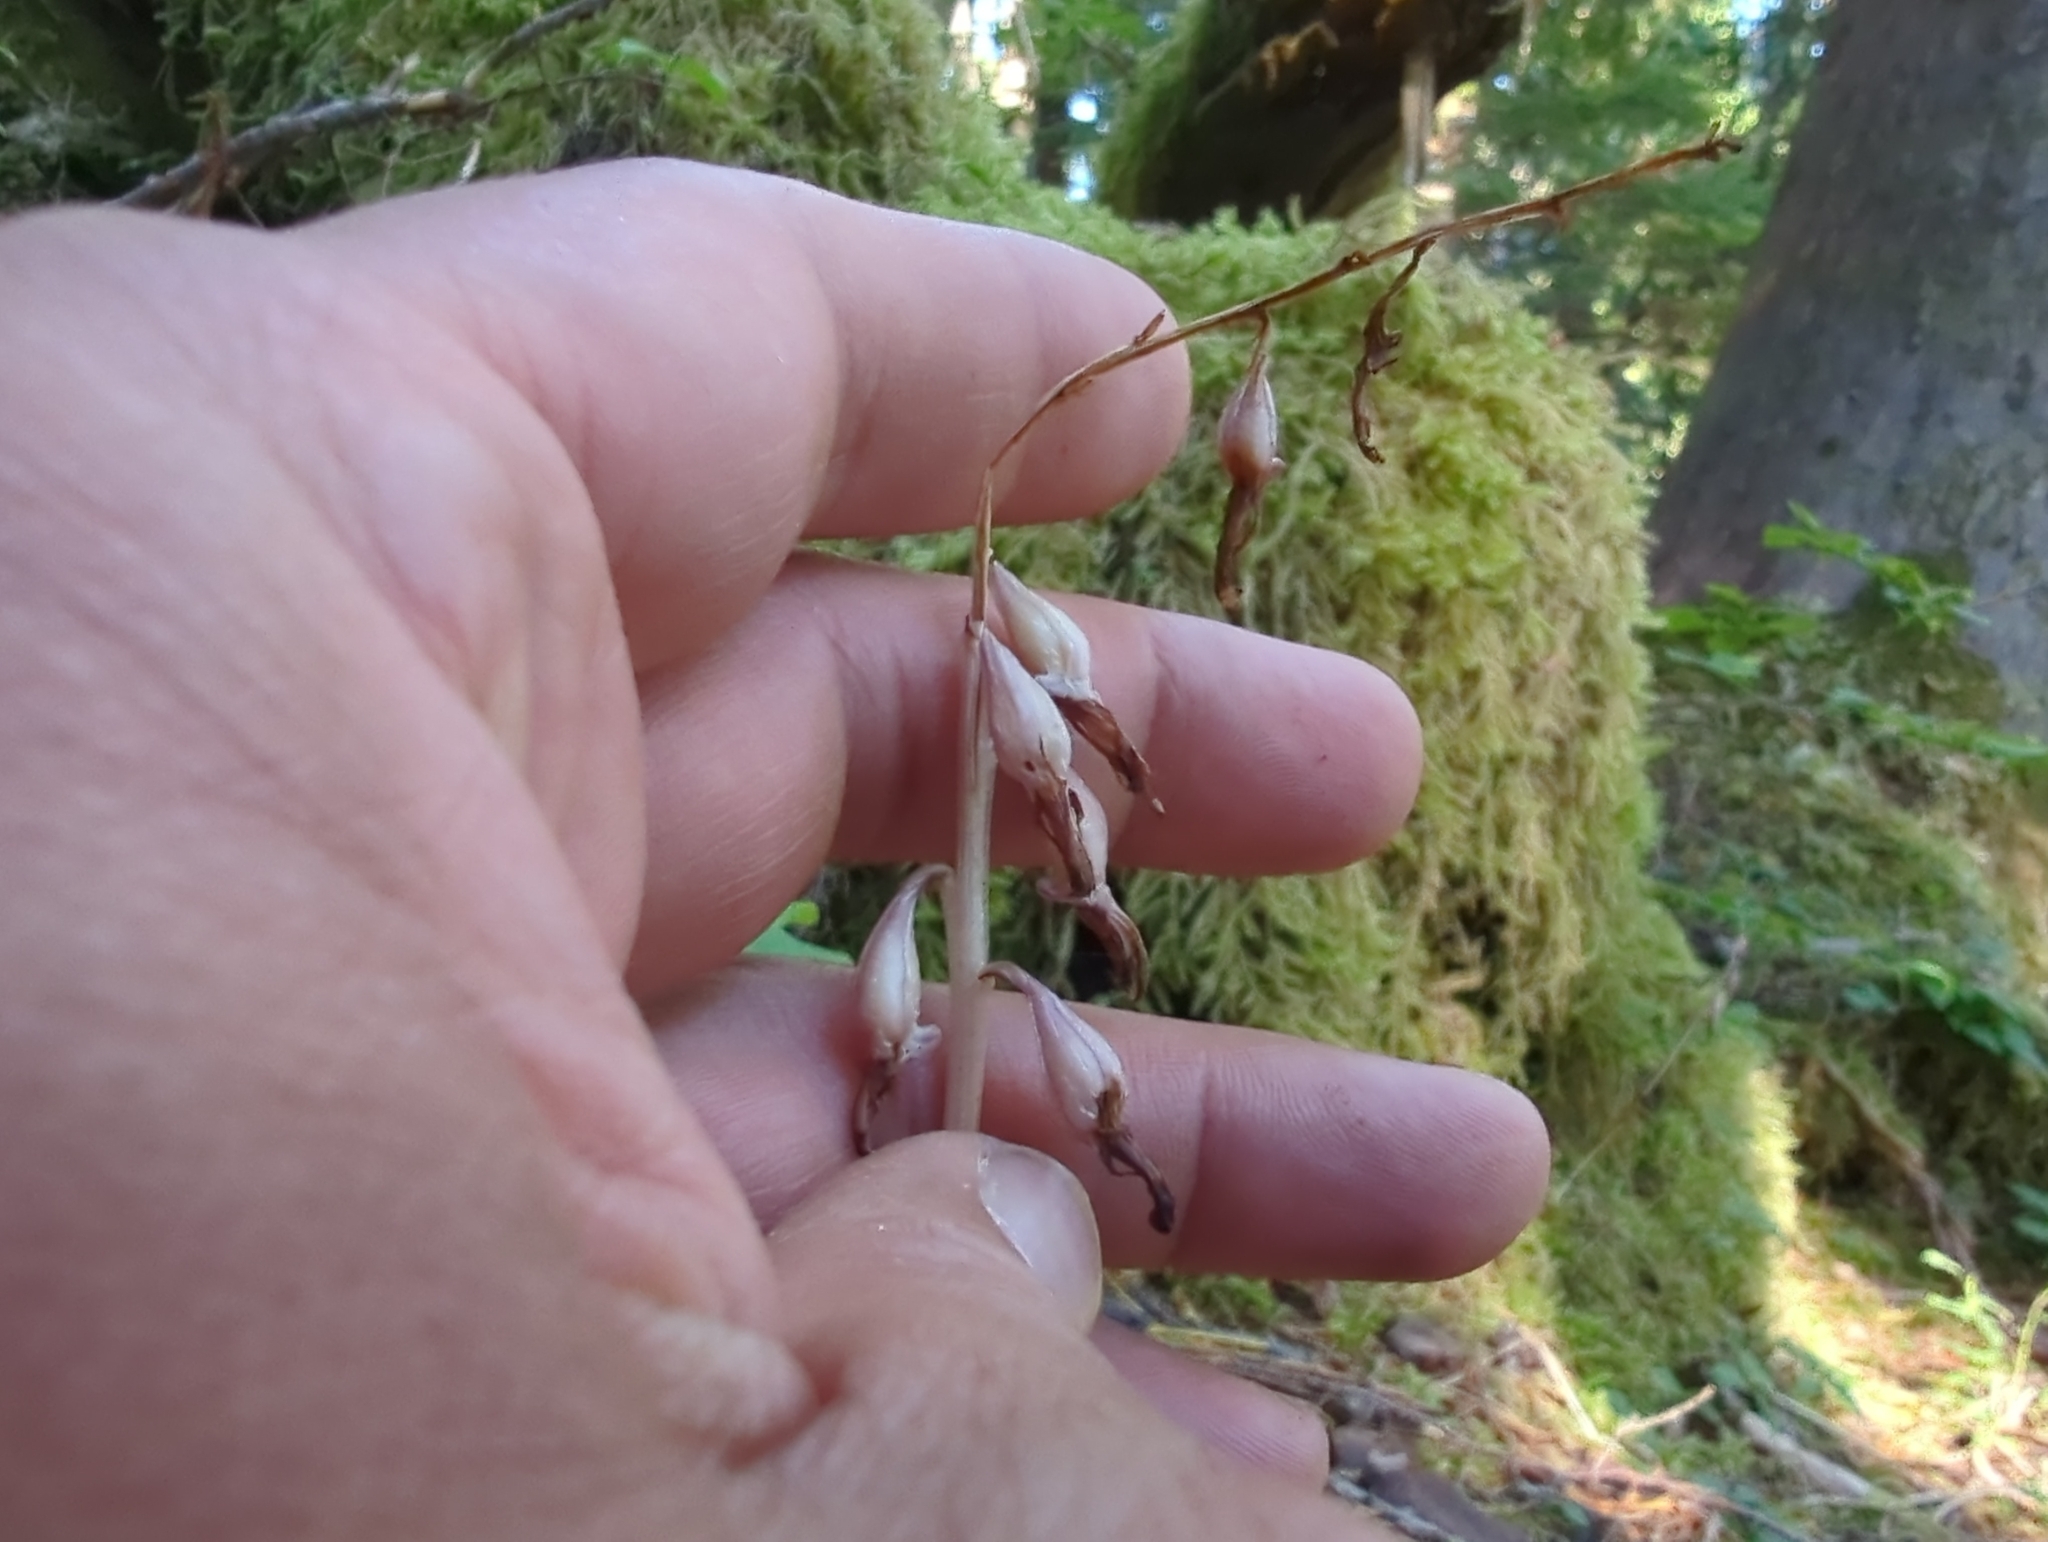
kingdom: Plantae
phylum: Tracheophyta
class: Liliopsida
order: Asparagales
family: Orchidaceae
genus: Corallorhiza
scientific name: Corallorhiza mertensiana
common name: Pacific coralroot
